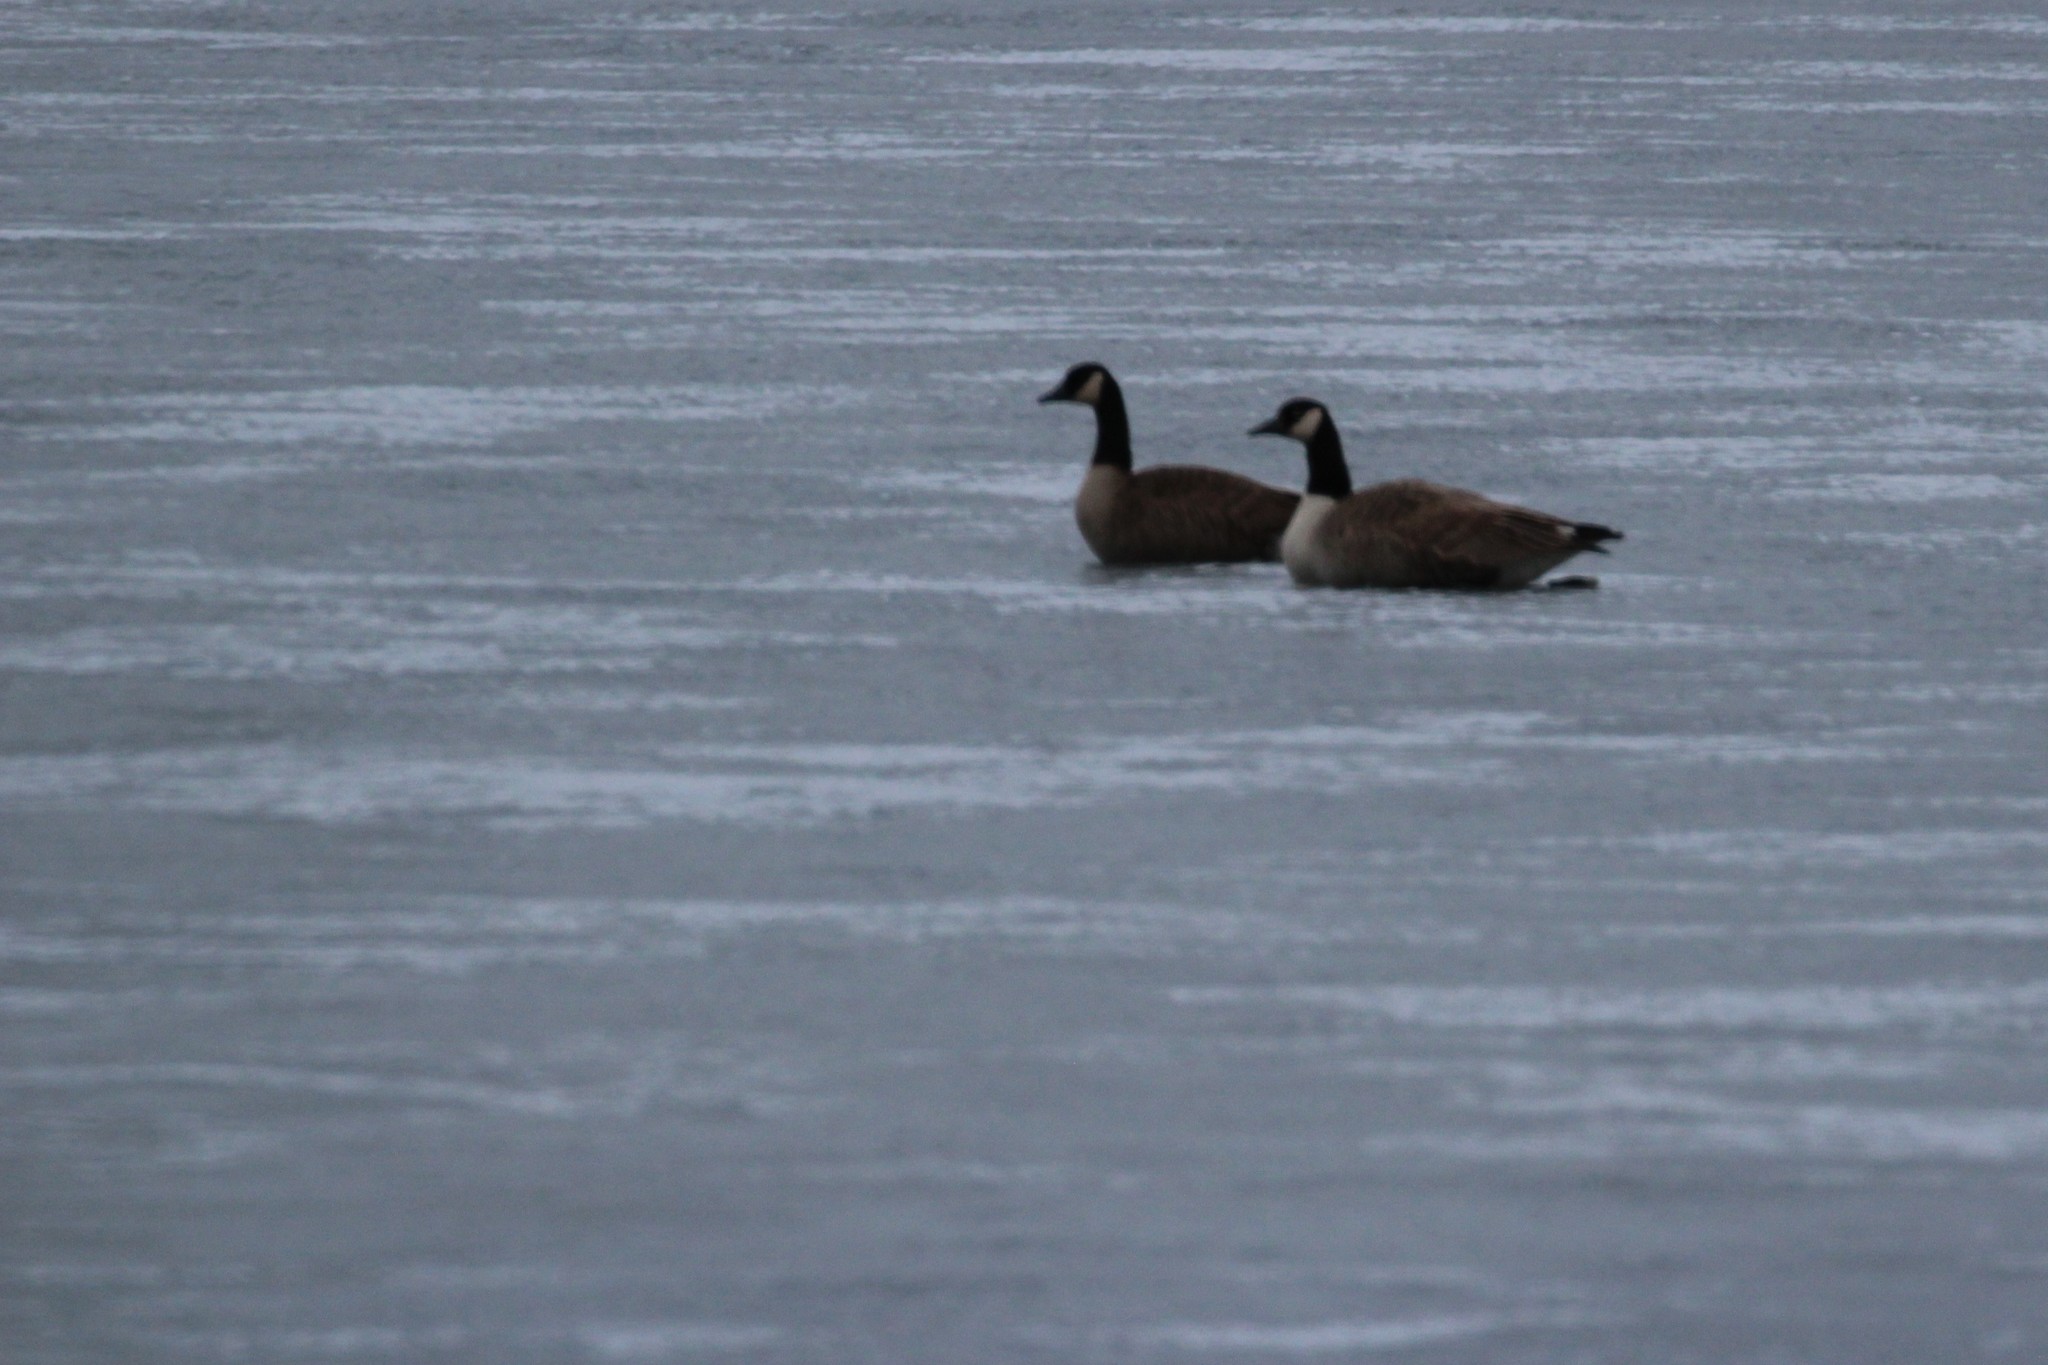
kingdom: Animalia
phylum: Chordata
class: Aves
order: Anseriformes
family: Anatidae
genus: Branta
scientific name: Branta canadensis
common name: Canada goose
